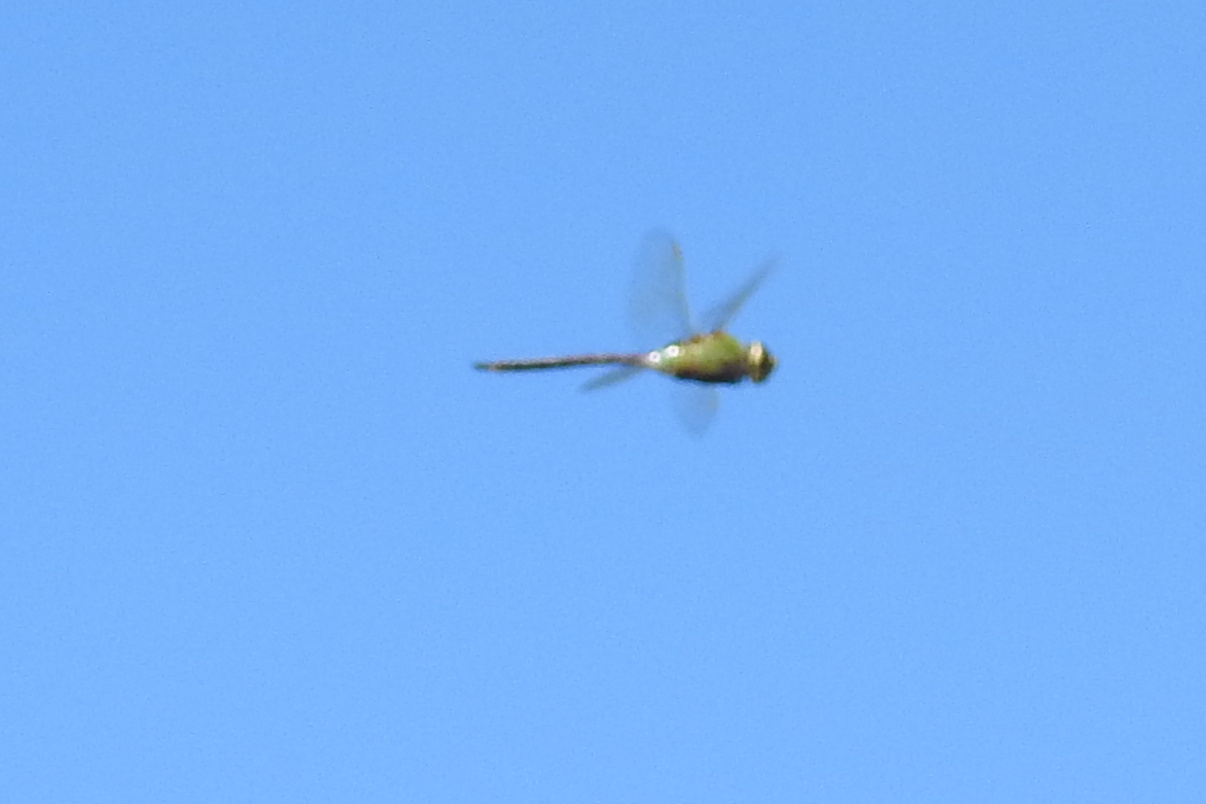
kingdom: Animalia
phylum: Arthropoda
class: Insecta
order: Odonata
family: Aeshnidae
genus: Anax
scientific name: Anax junius
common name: Common green darner
